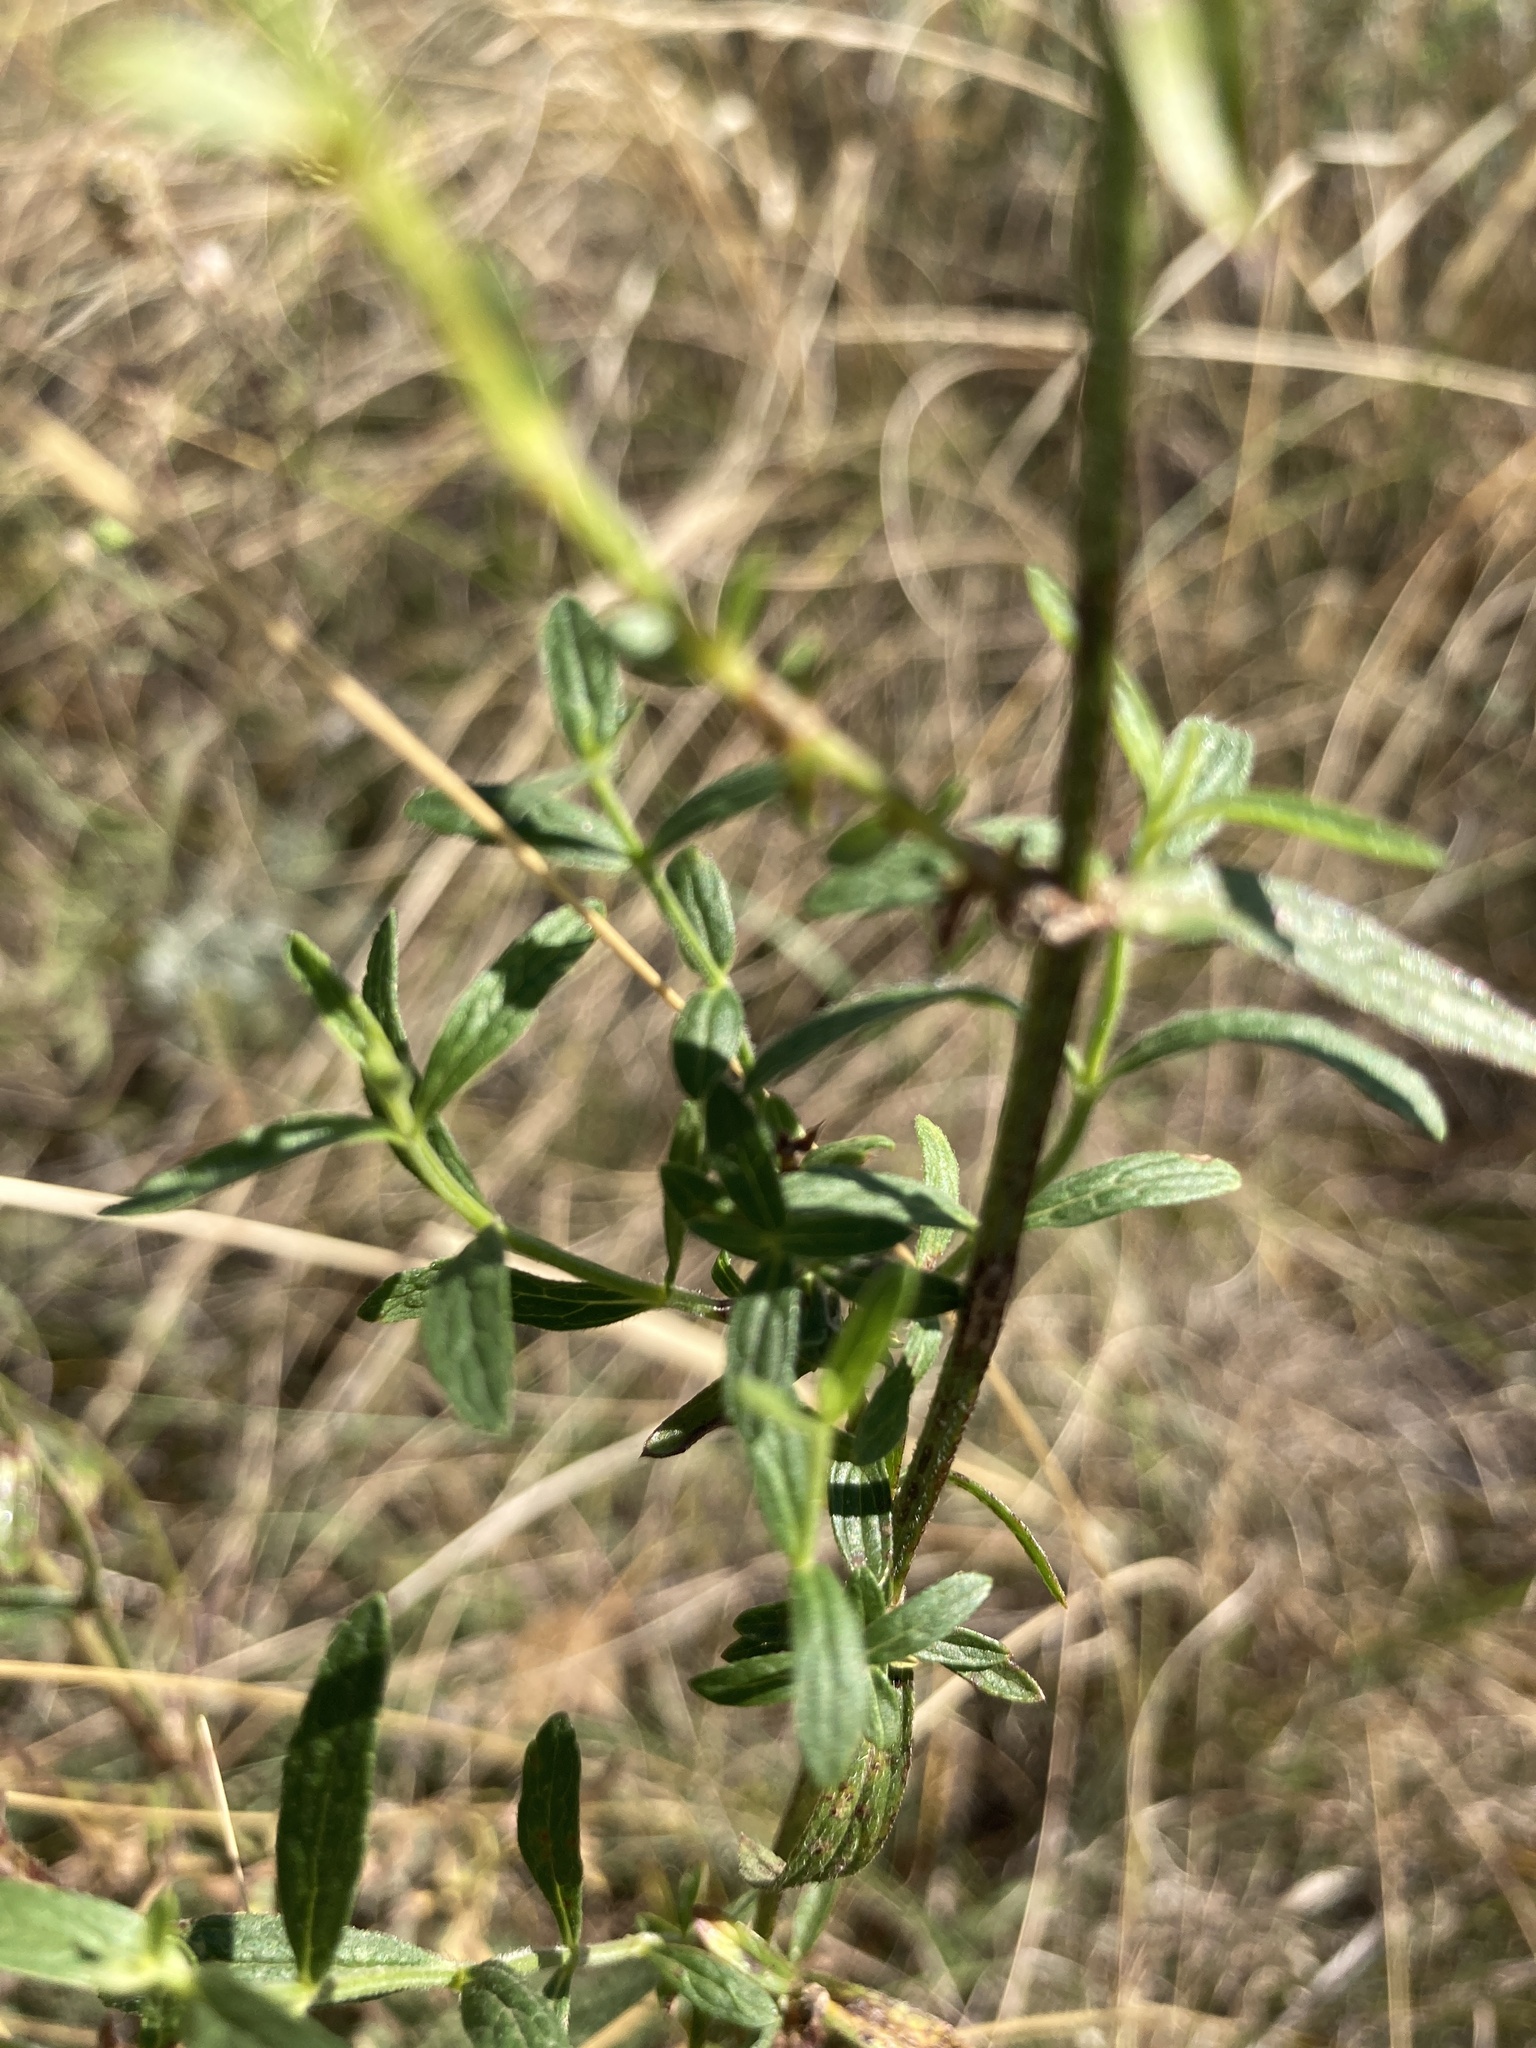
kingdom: Plantae
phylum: Tracheophyta
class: Magnoliopsida
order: Lamiales
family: Lamiaceae
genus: Stachys
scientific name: Stachys recta
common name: Perennial yellow-woundwort
